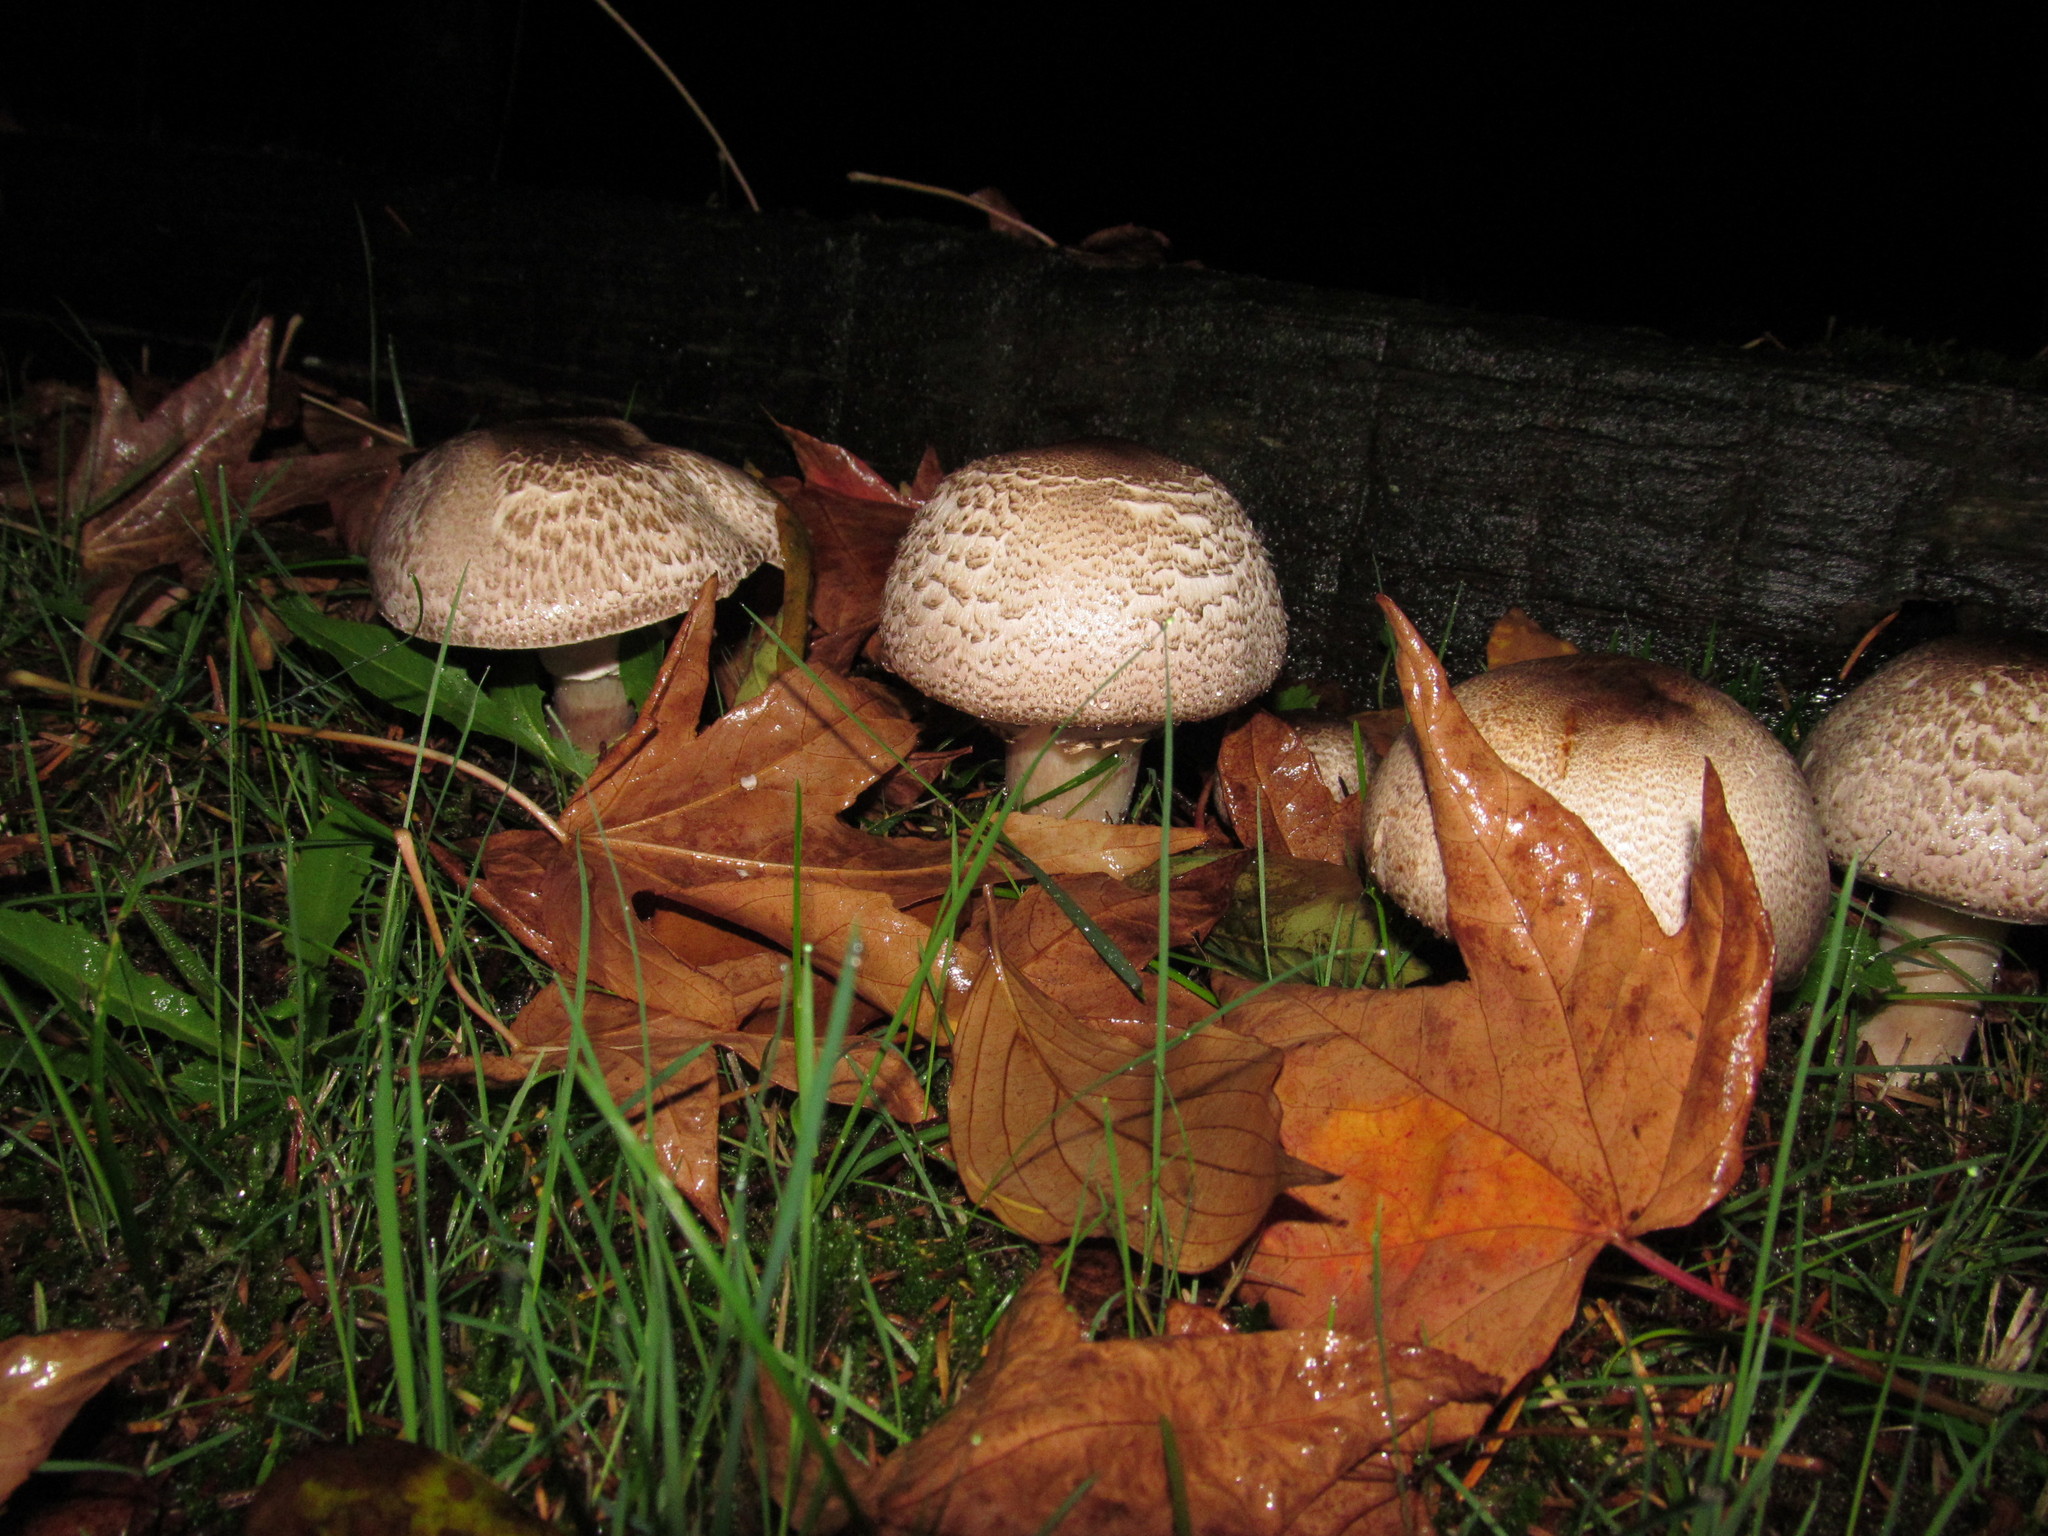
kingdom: Fungi
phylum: Basidiomycota
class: Agaricomycetes
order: Agaricales
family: Agaricaceae
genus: Agaricus
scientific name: Agaricus moelleri
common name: Inky mushroom
